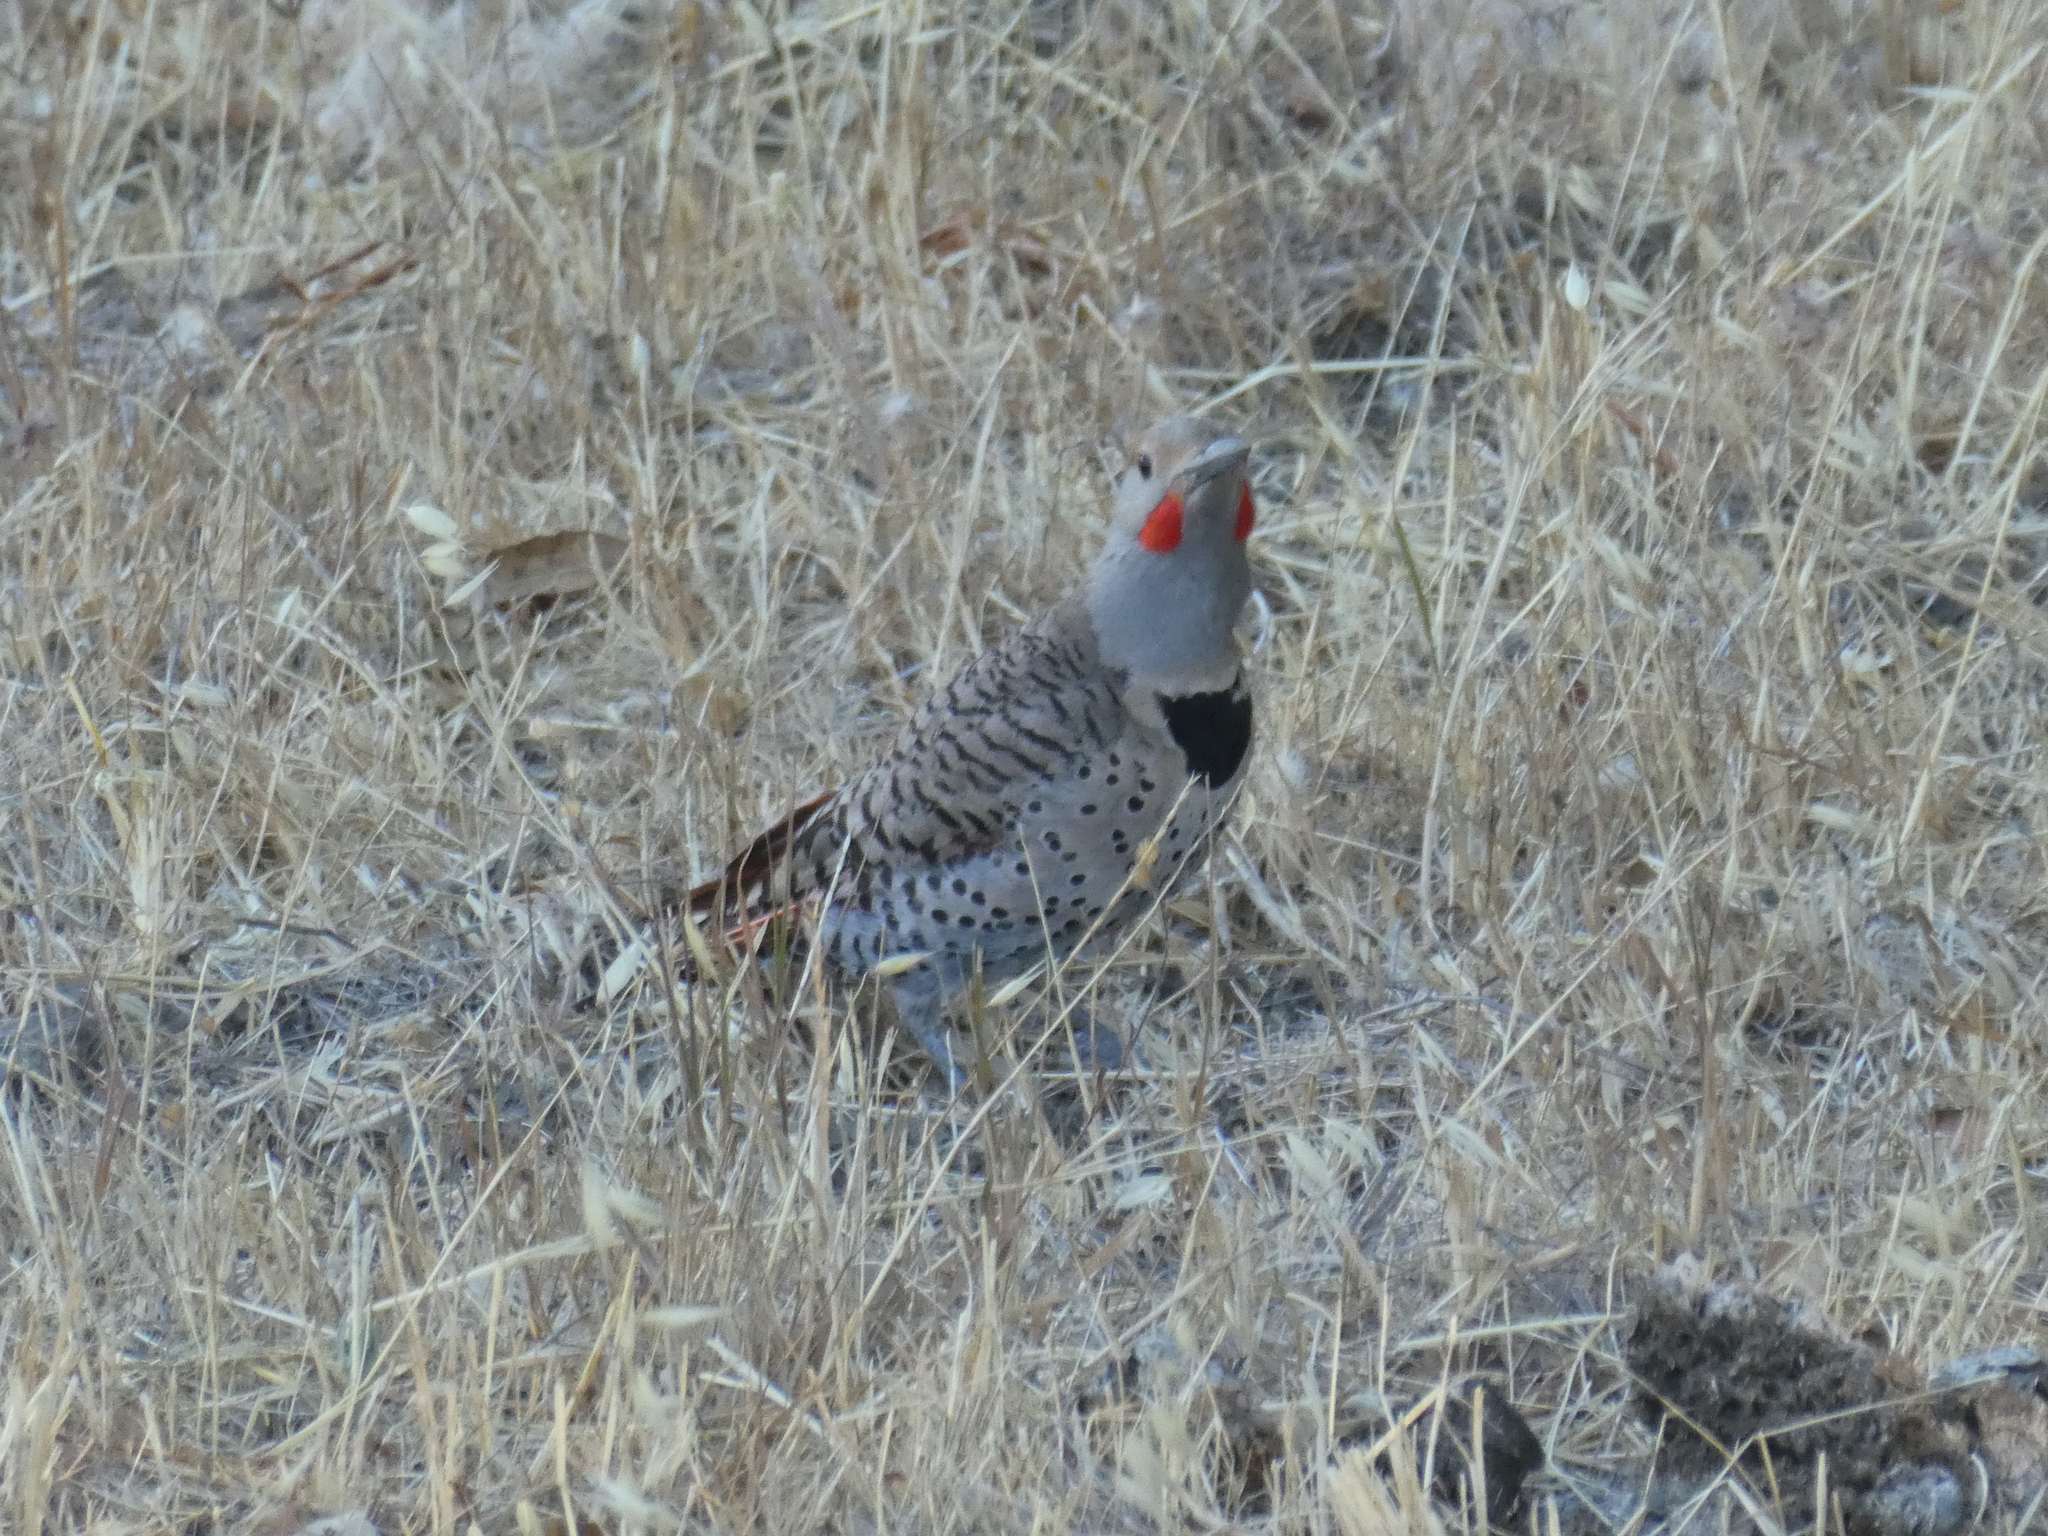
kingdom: Animalia
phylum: Chordata
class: Aves
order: Piciformes
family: Picidae
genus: Colaptes
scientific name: Colaptes auratus
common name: Northern flicker
